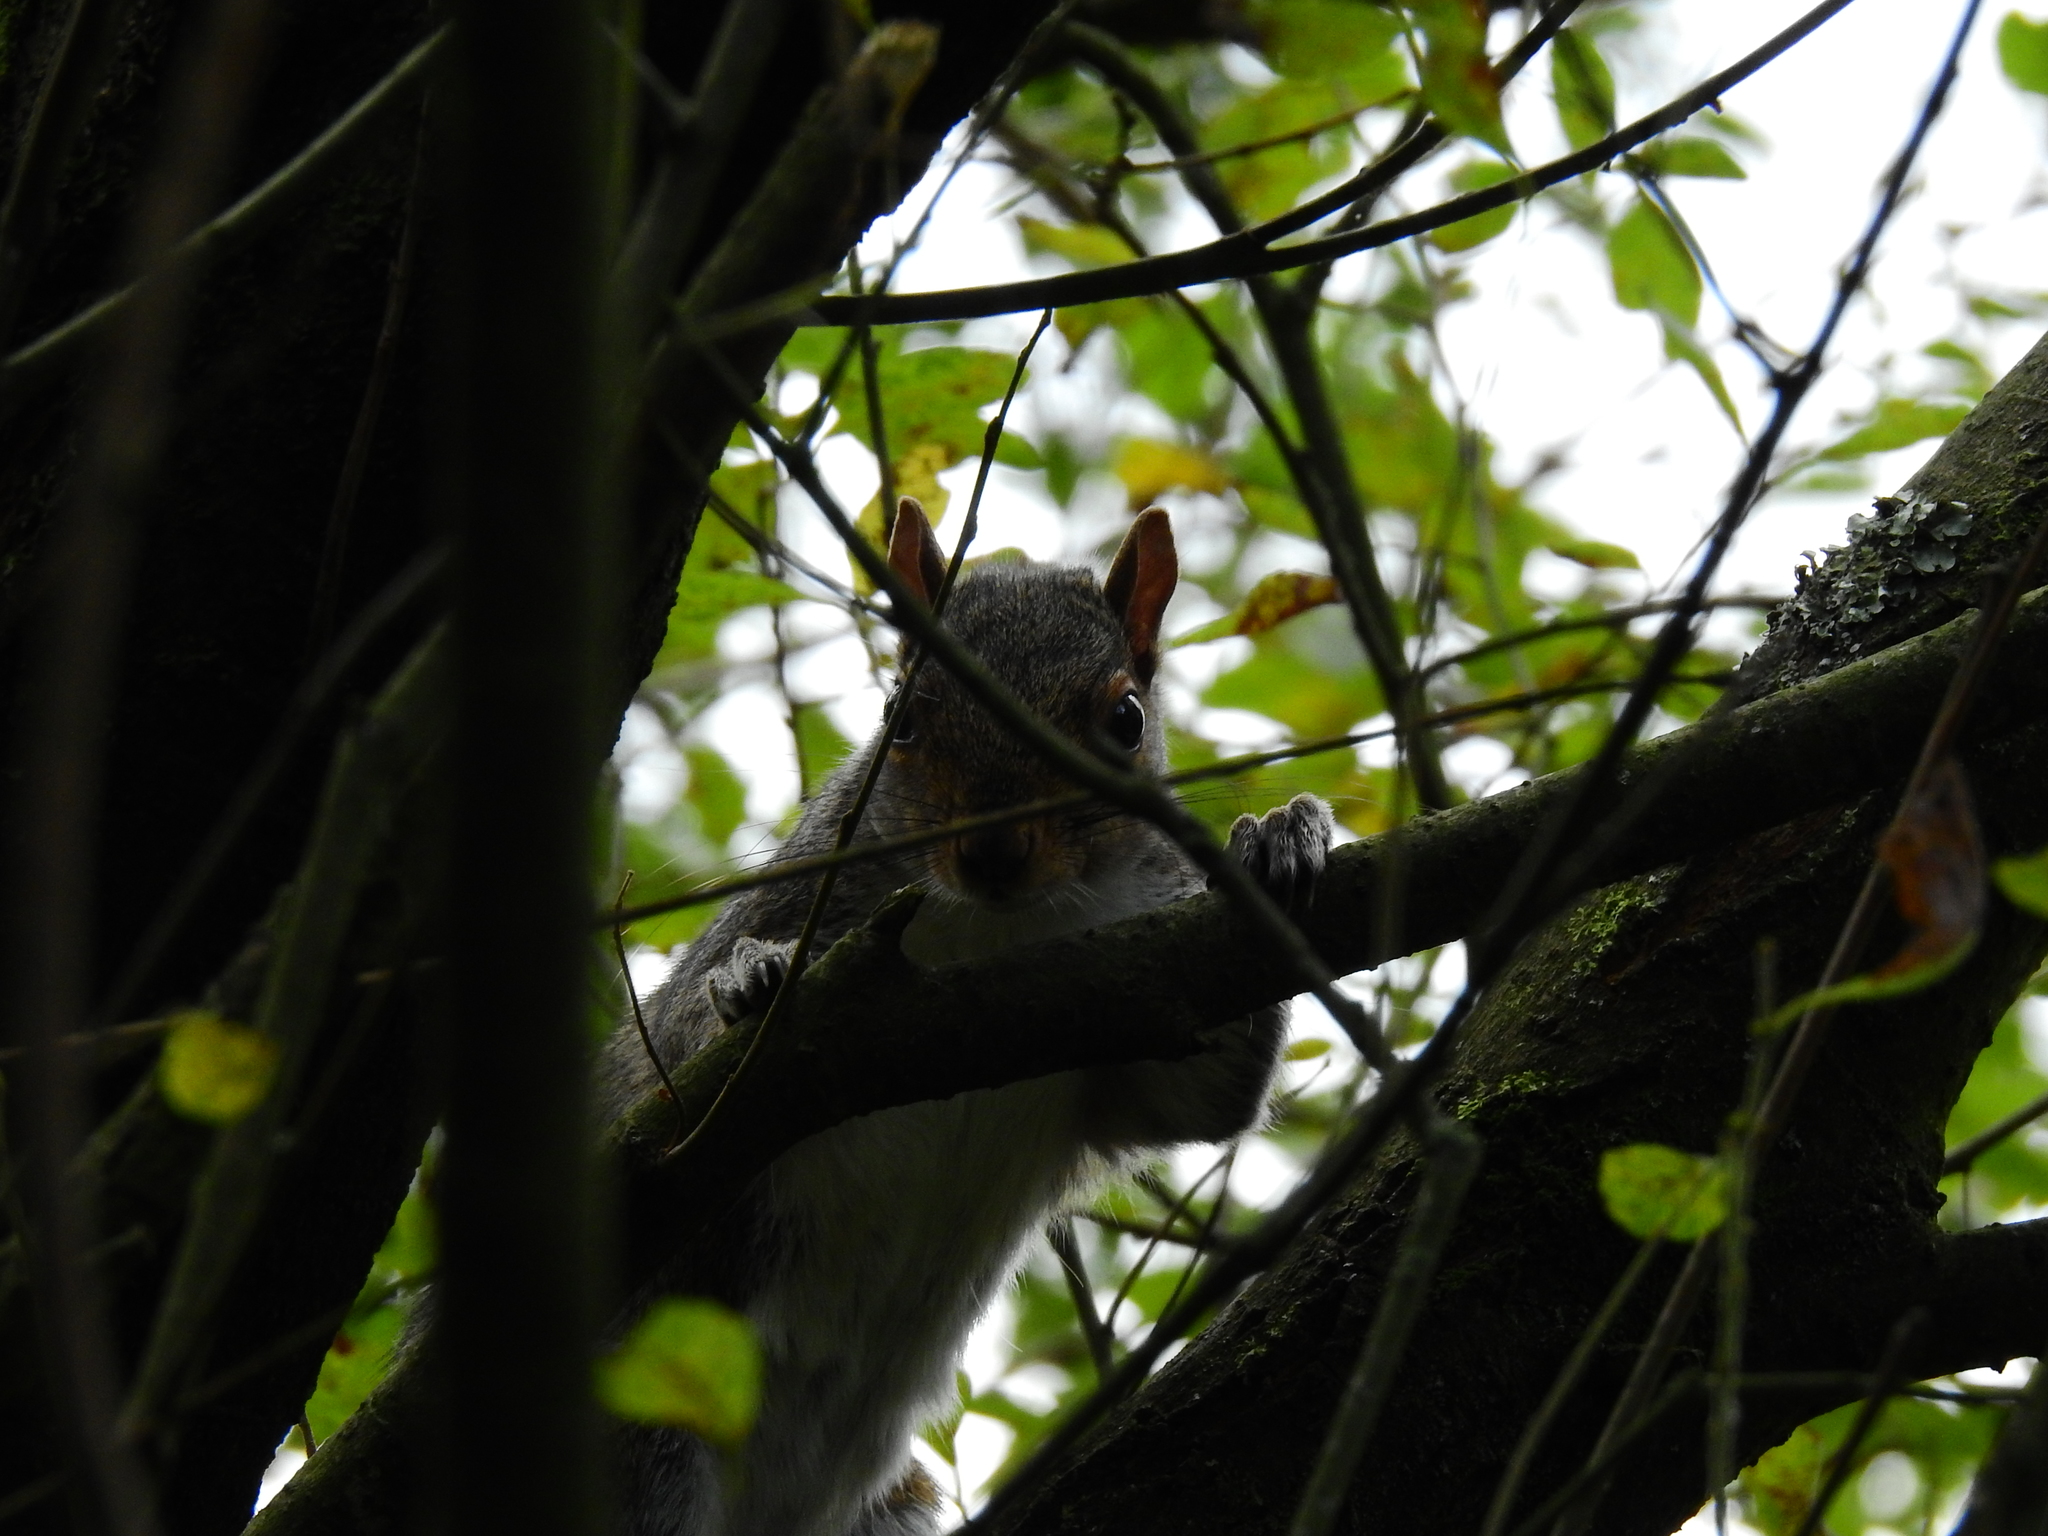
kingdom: Animalia
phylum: Chordata
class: Mammalia
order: Rodentia
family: Sciuridae
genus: Sciurus
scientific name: Sciurus carolinensis
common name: Eastern gray squirrel
